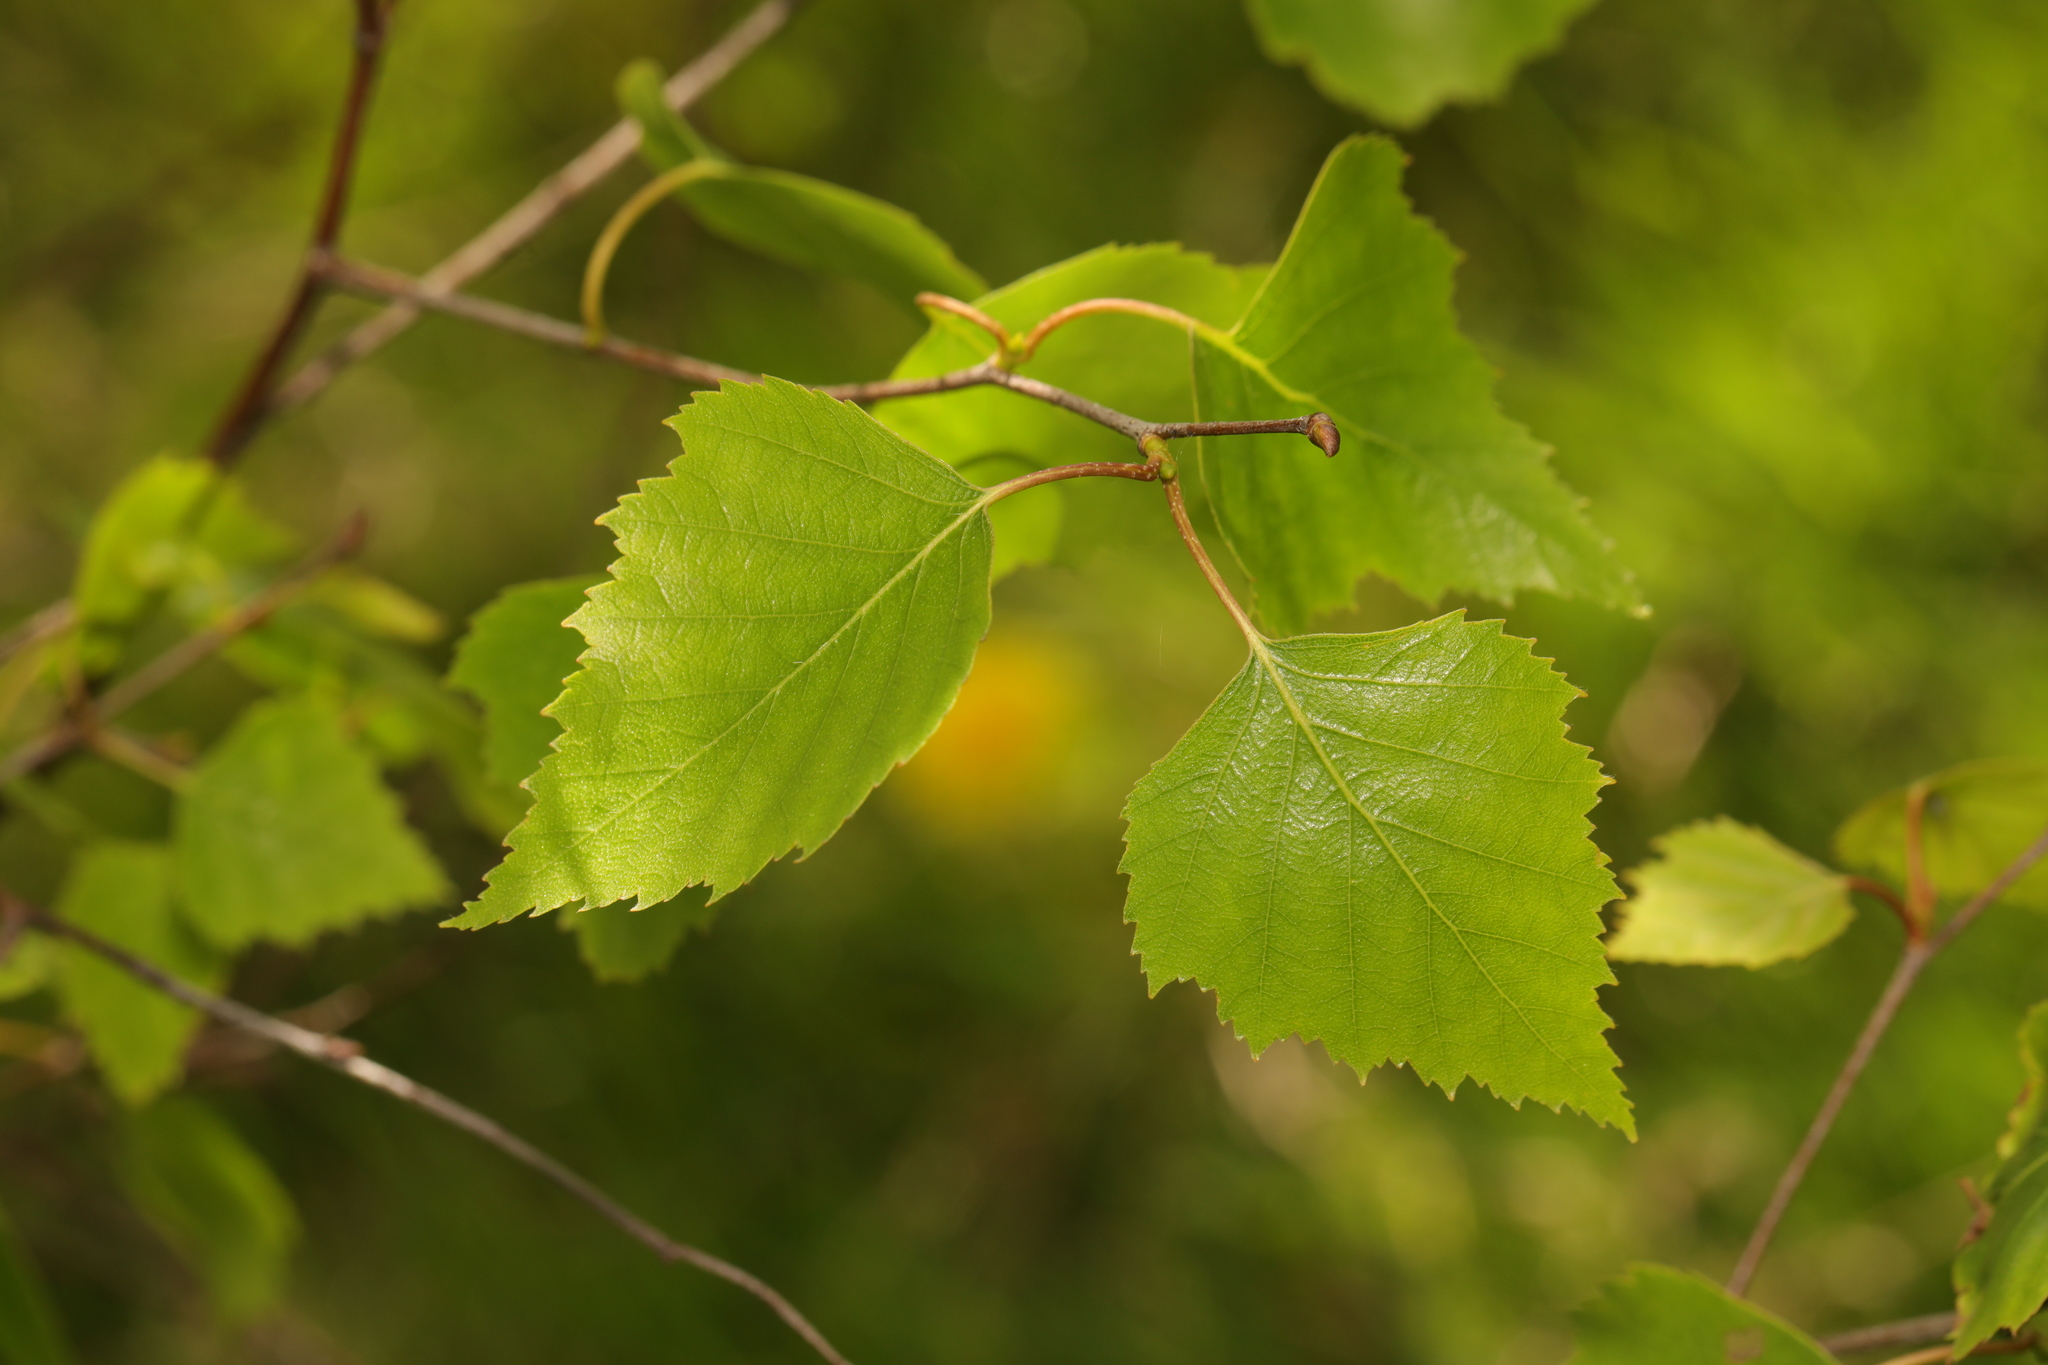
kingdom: Plantae
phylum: Tracheophyta
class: Magnoliopsida
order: Fagales
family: Betulaceae
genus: Betula
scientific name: Betula pendula
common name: Silver birch
